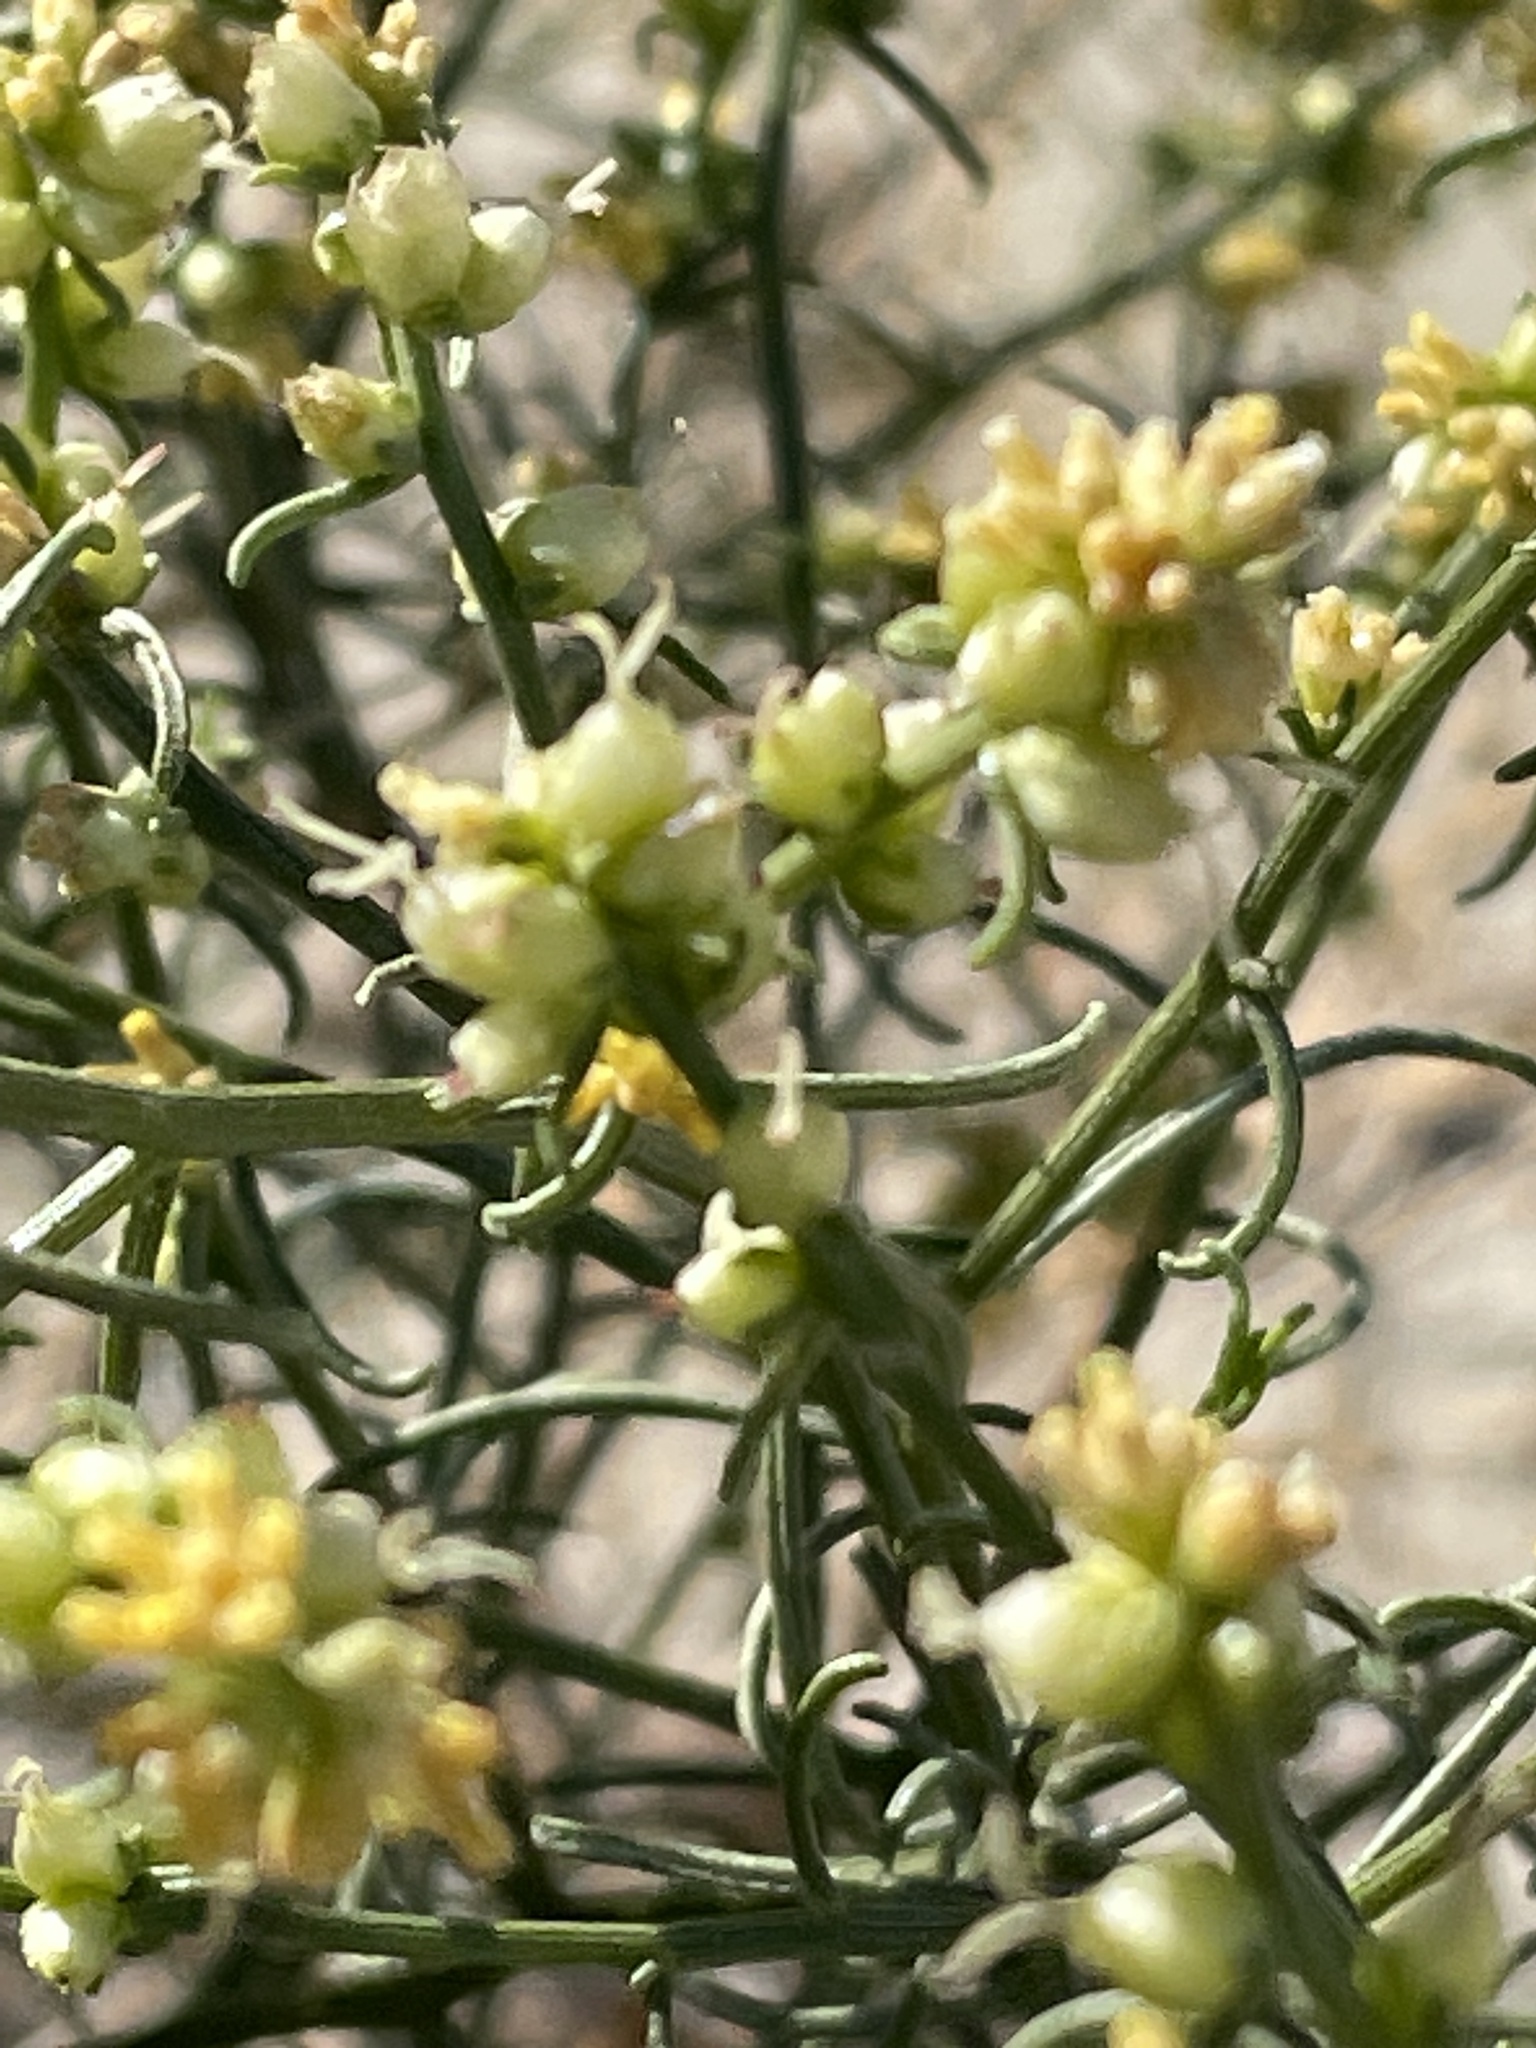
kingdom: Plantae
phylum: Tracheophyta
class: Magnoliopsida
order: Asterales
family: Asteraceae
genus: Ambrosia
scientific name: Ambrosia salsola
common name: Burrobrush
